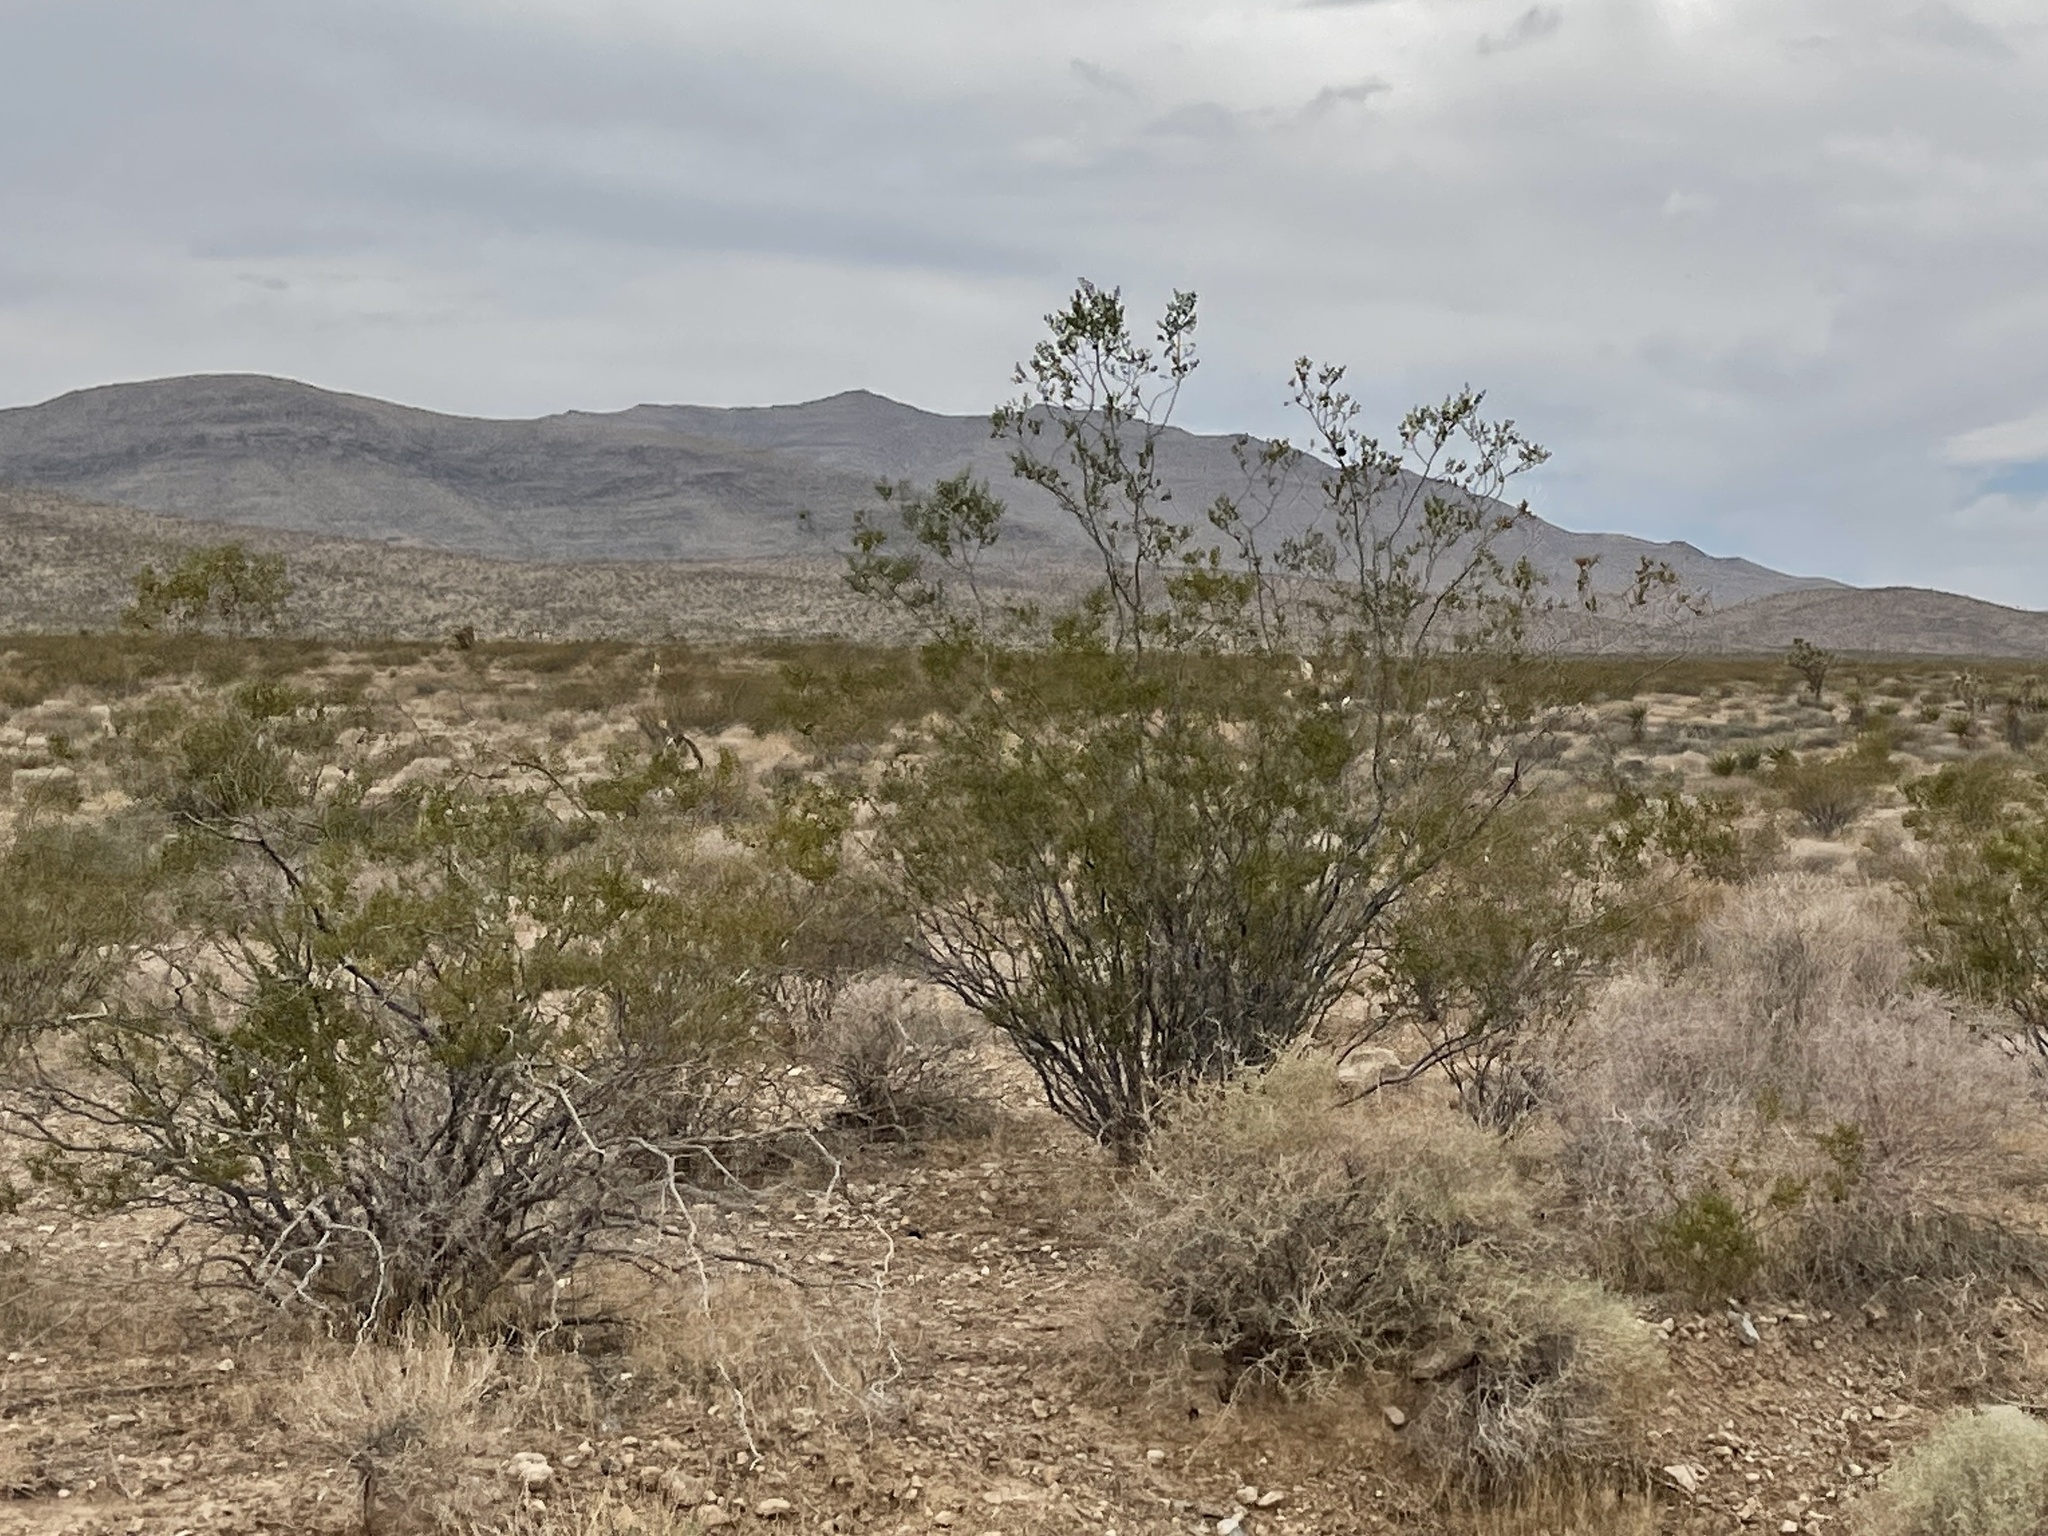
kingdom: Plantae
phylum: Tracheophyta
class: Magnoliopsida
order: Zygophyllales
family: Zygophyllaceae
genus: Larrea
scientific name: Larrea tridentata
